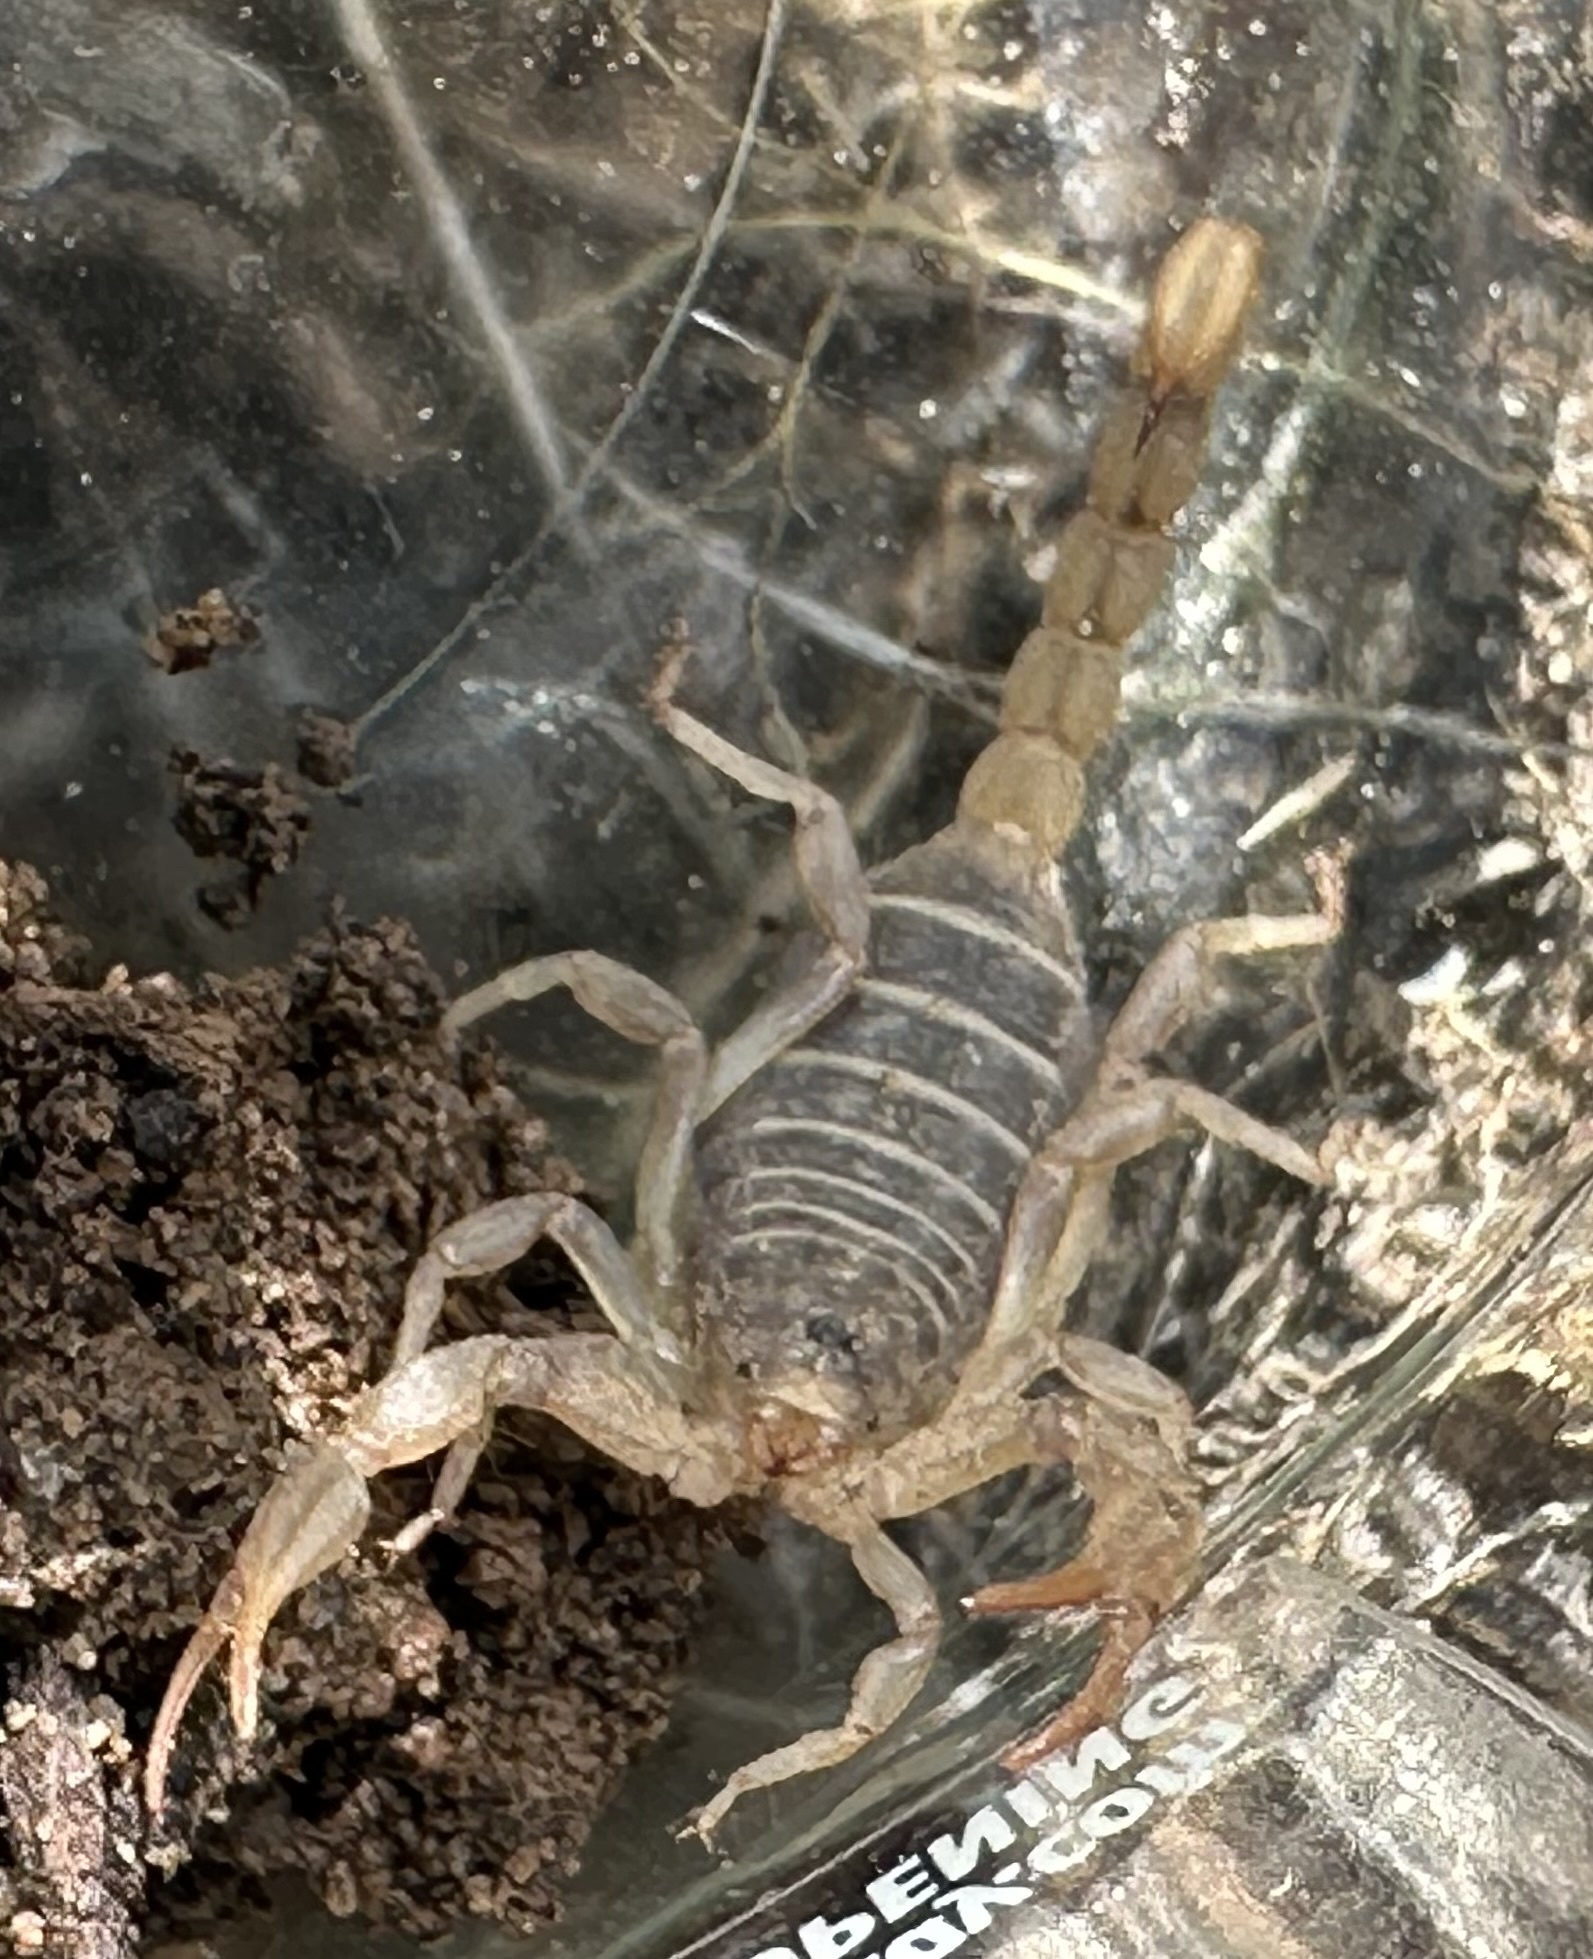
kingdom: Animalia
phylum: Arthropoda
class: Arachnida
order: Scorpiones
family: Vaejovidae
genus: Paruroctonus
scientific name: Paruroctonus boreus
